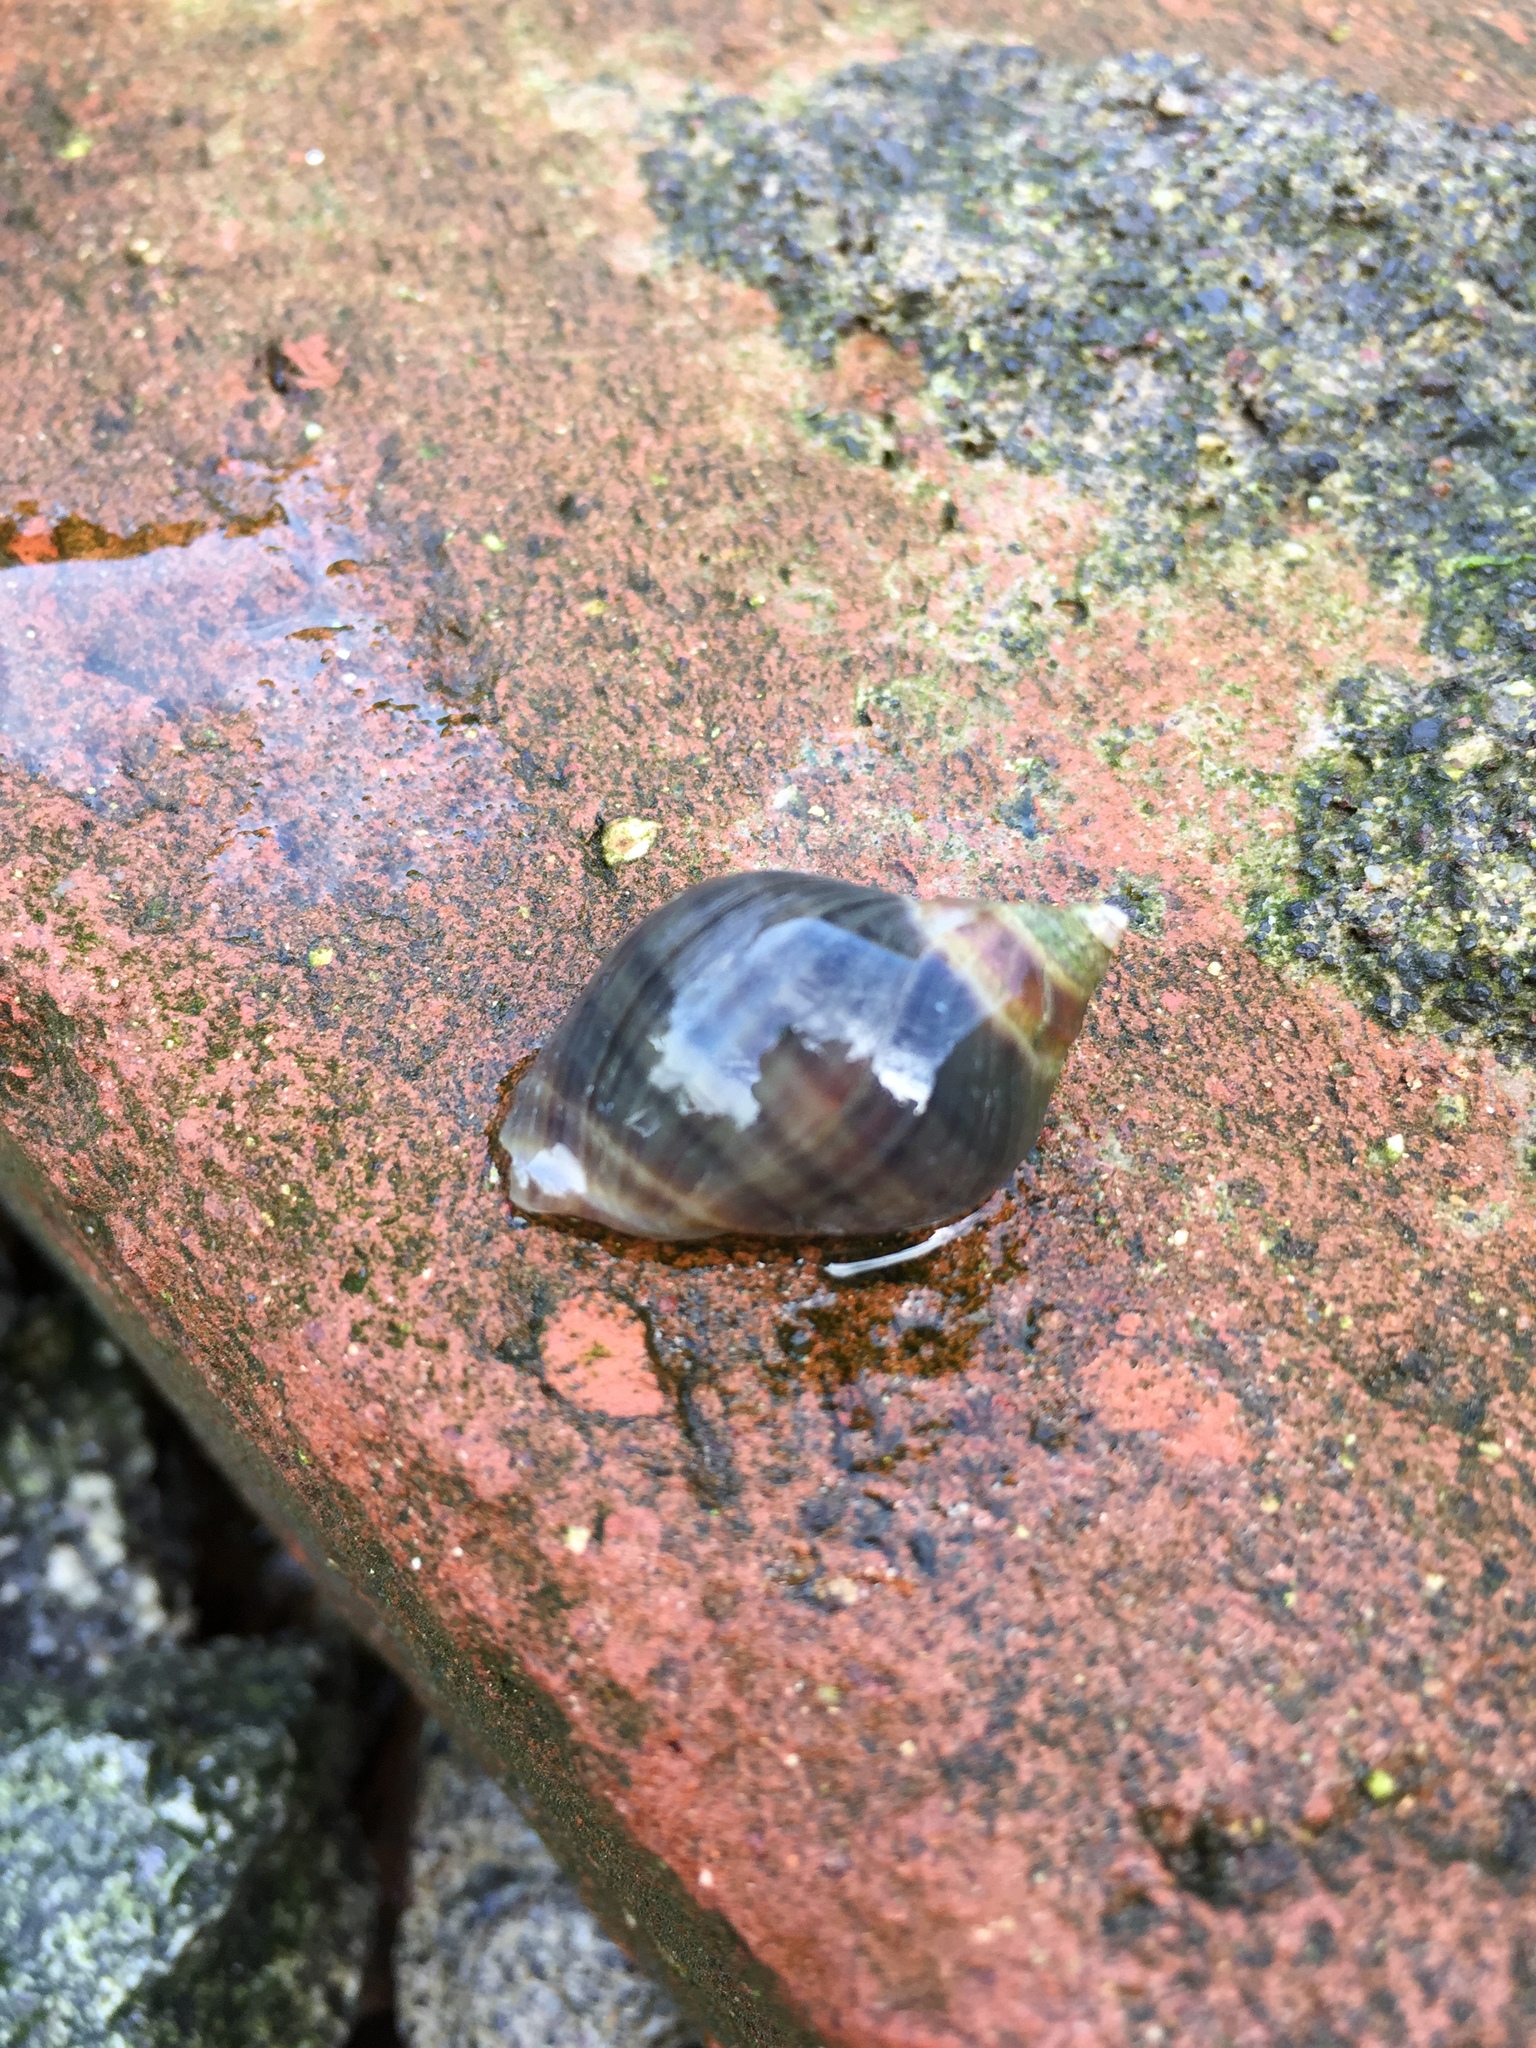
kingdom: Animalia
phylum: Mollusca
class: Gastropoda
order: Neogastropoda
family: Muricidae
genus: Acanthina
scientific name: Acanthina monodon
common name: One-toothed thais
